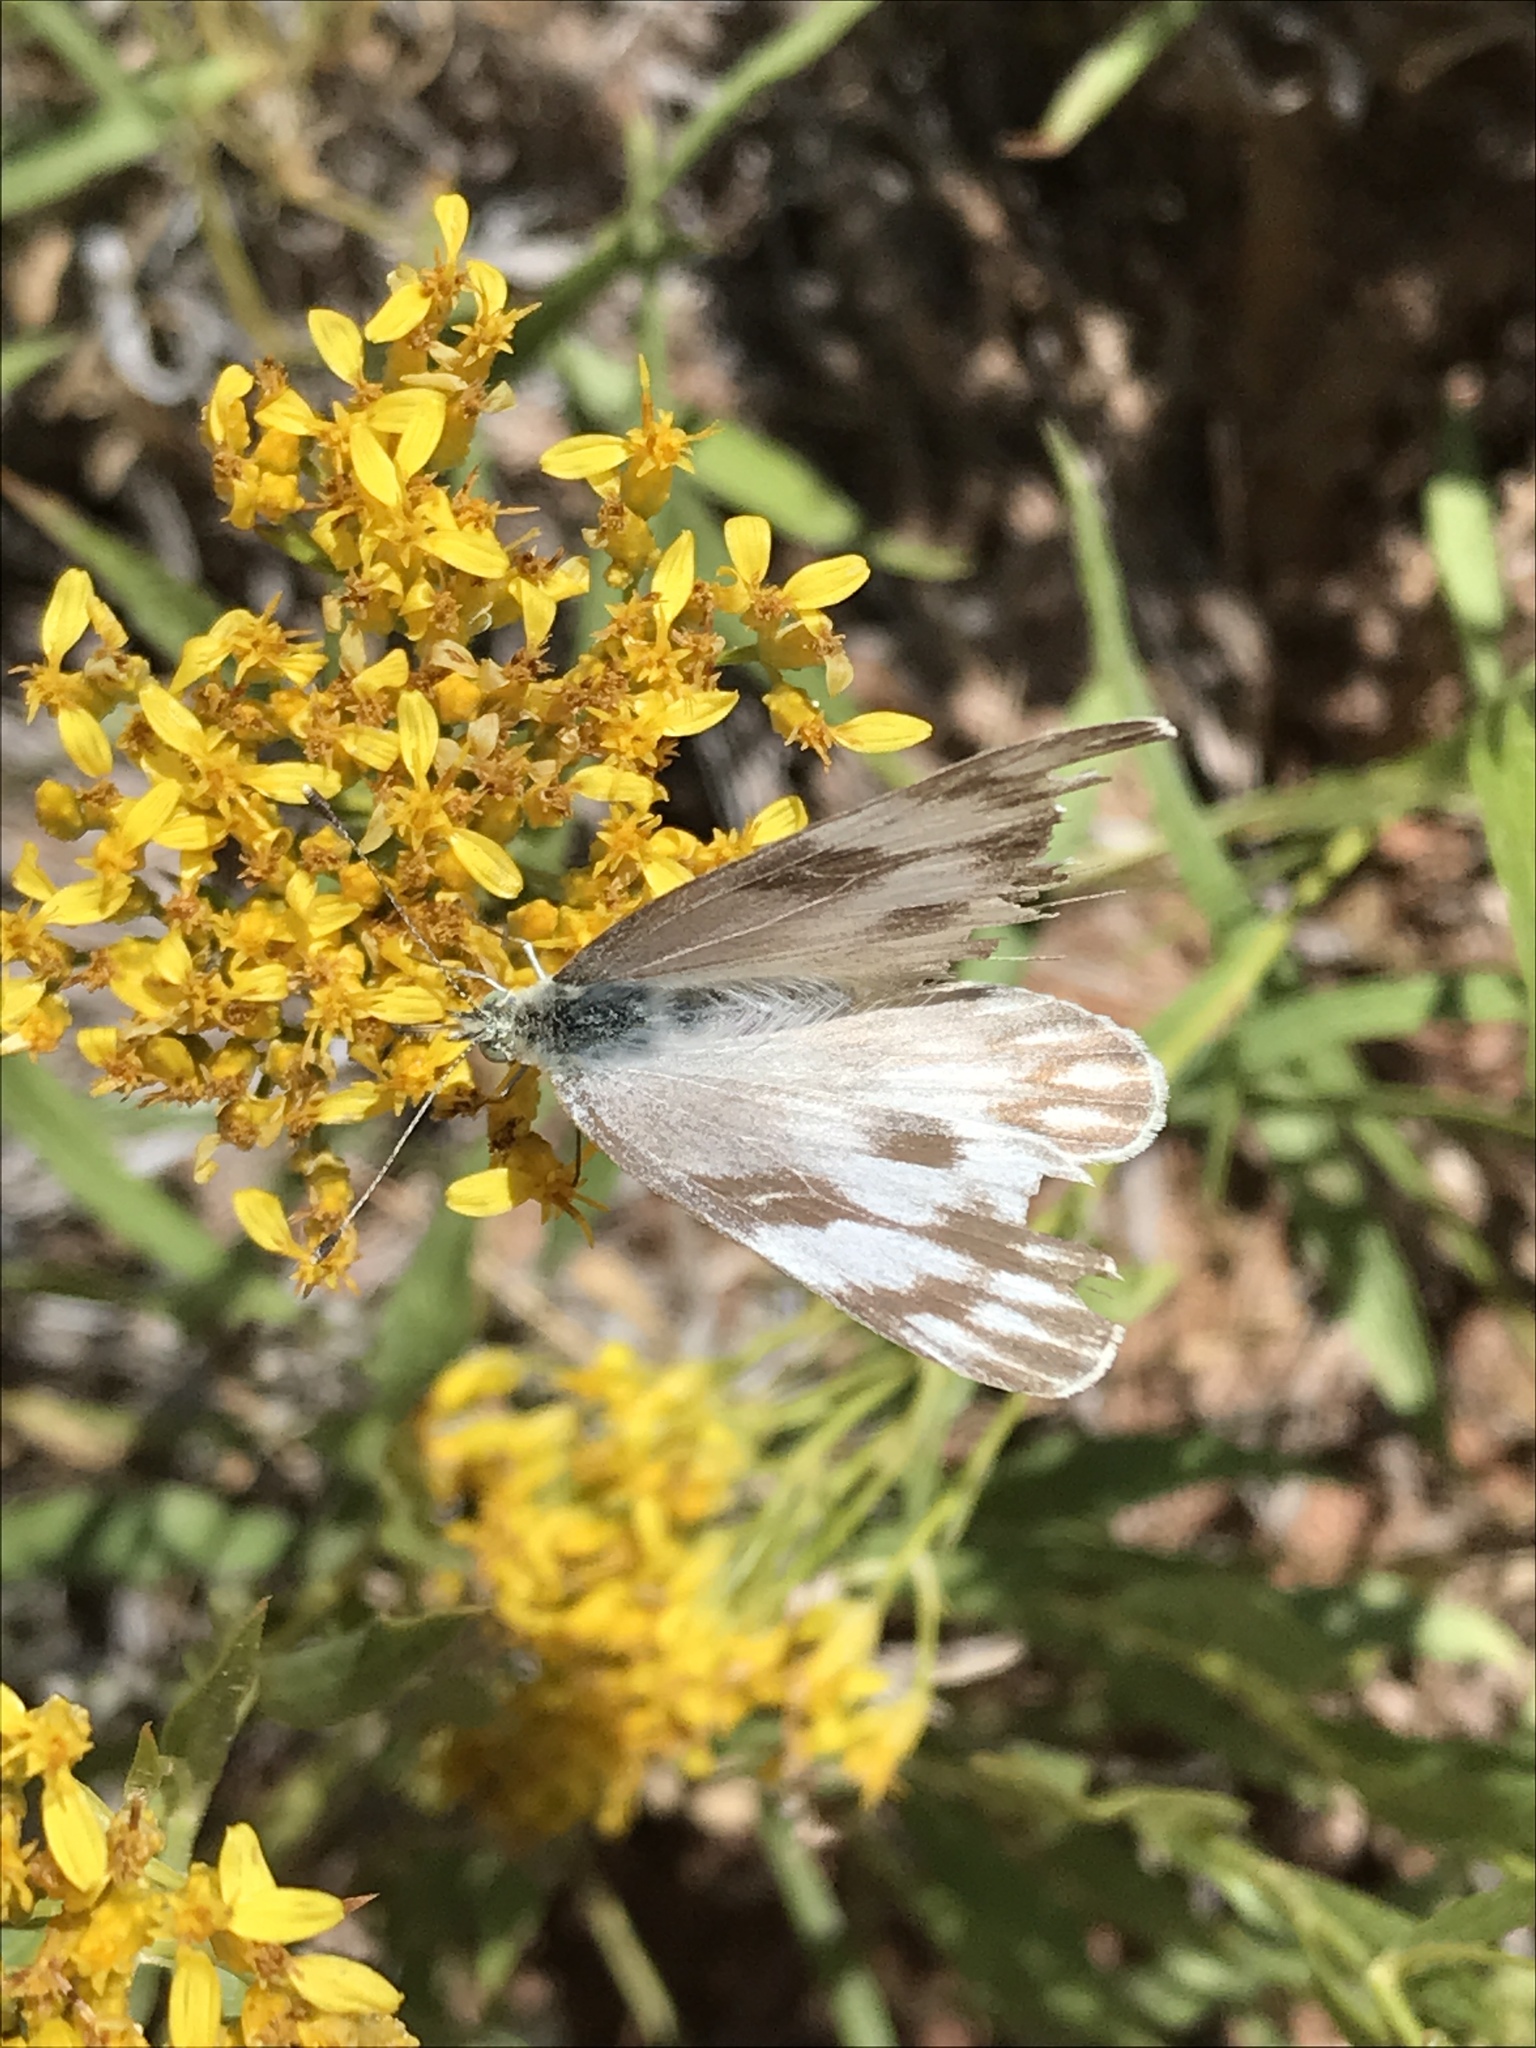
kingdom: Animalia
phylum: Arthropoda
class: Insecta
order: Lepidoptera
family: Pieridae
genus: Pontia
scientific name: Pontia protodice
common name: Checkered white
